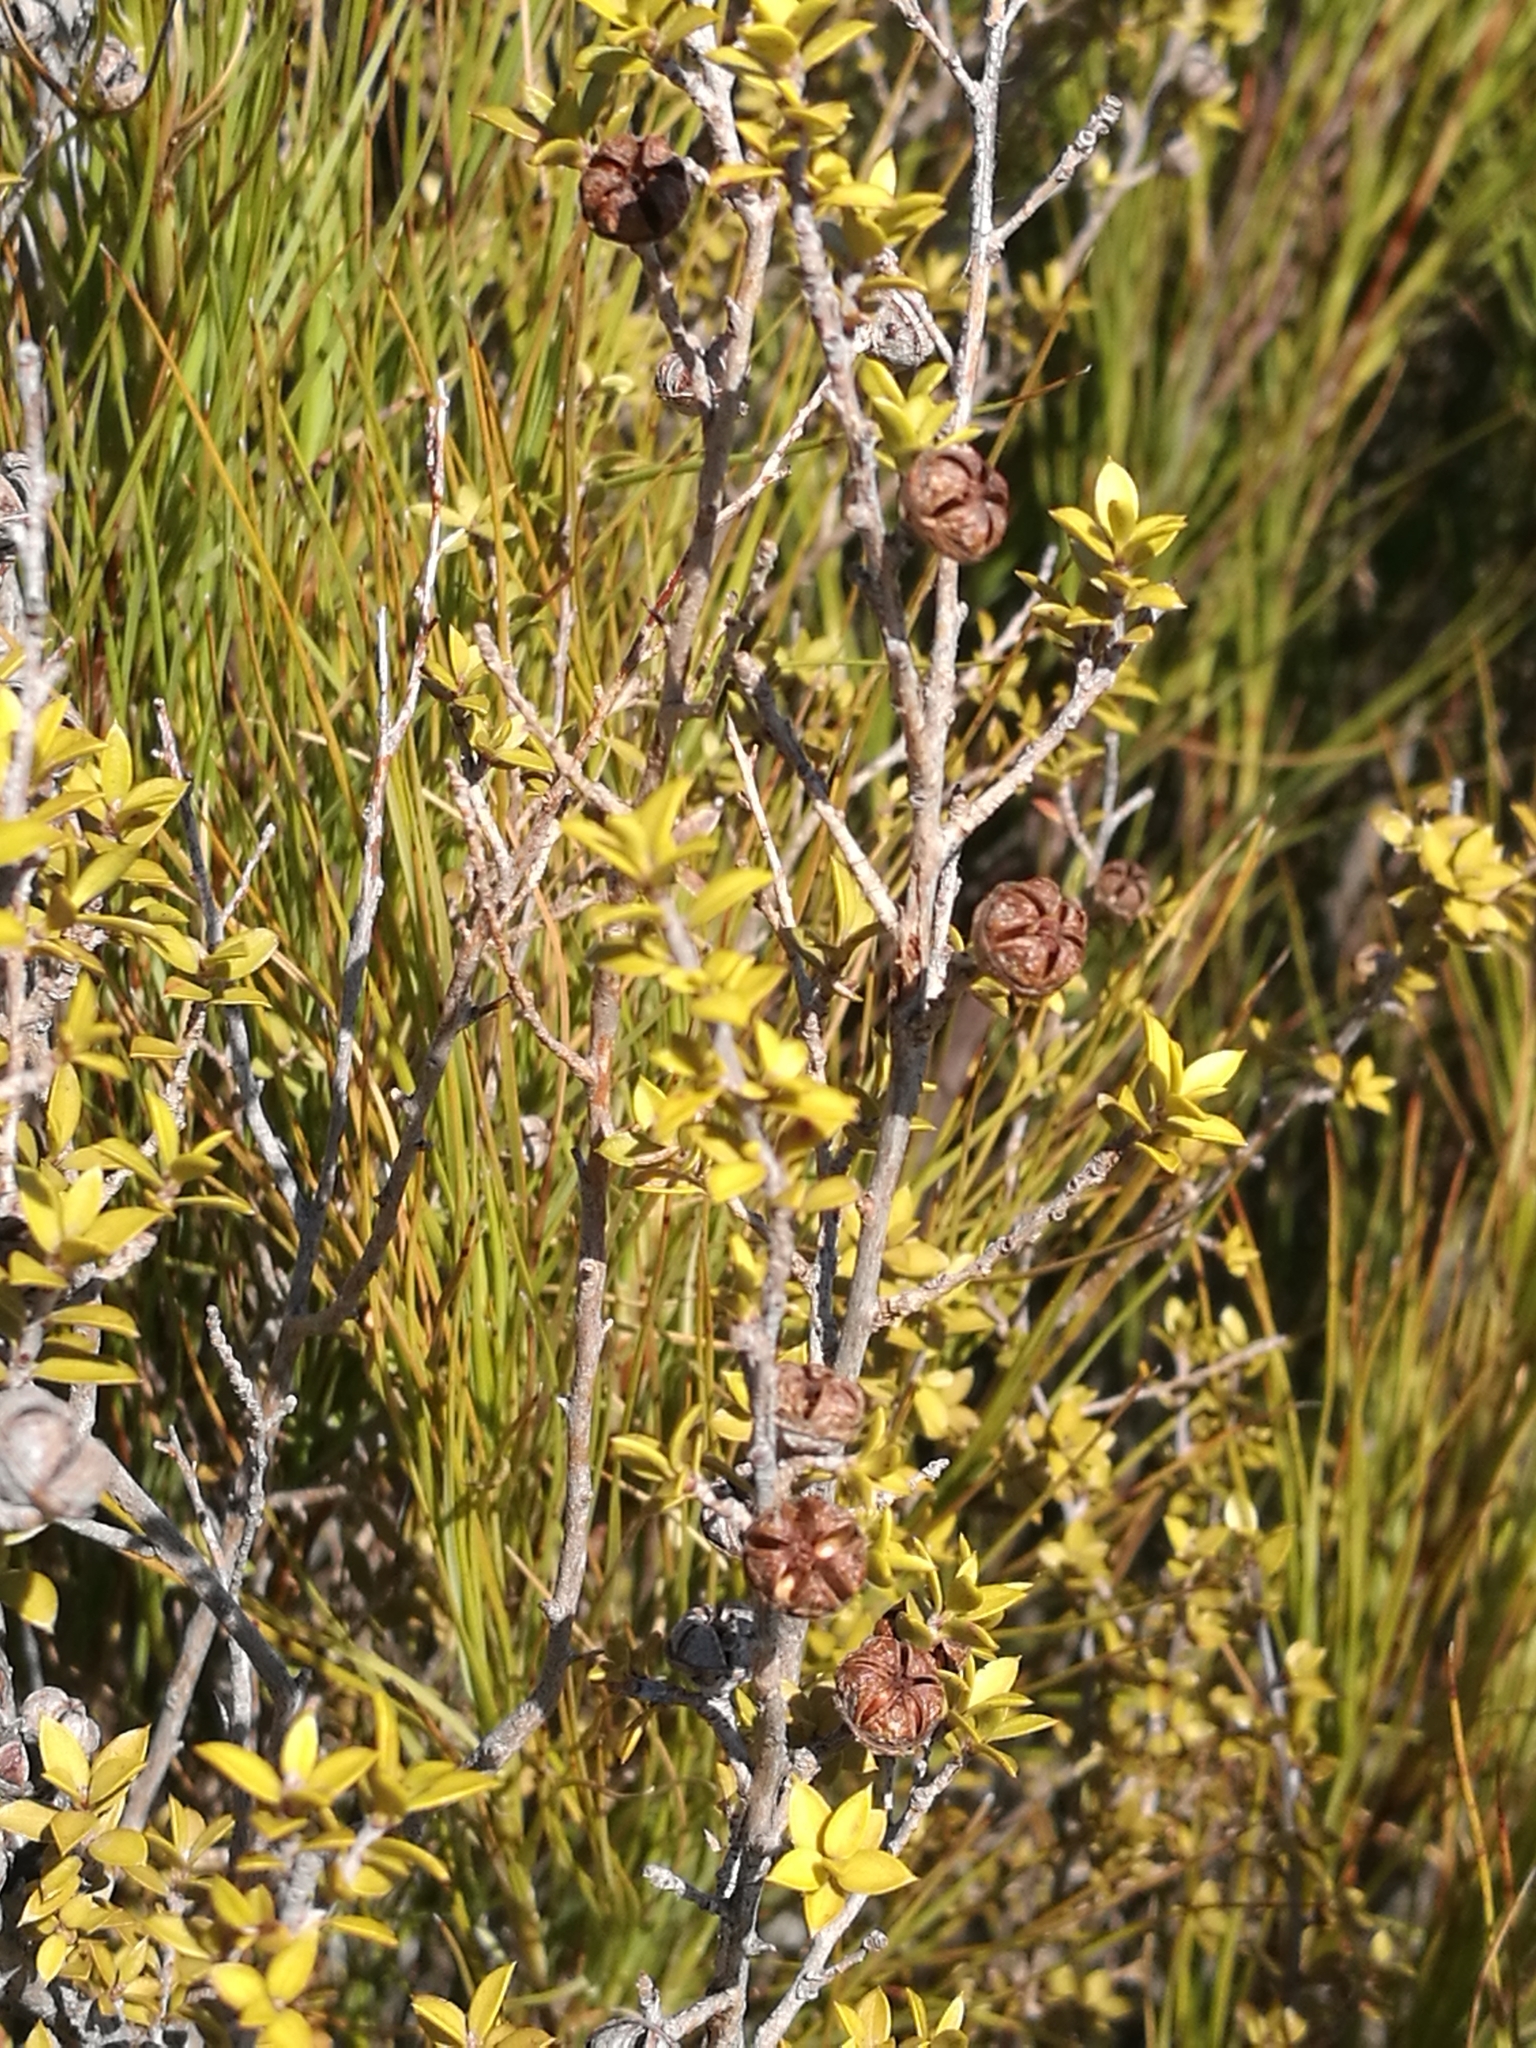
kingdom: Plantae
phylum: Tracheophyta
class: Magnoliopsida
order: Myrtales
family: Myrtaceae
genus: Leptospermum
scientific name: Leptospermum scoparium
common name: Broom tea-tree
